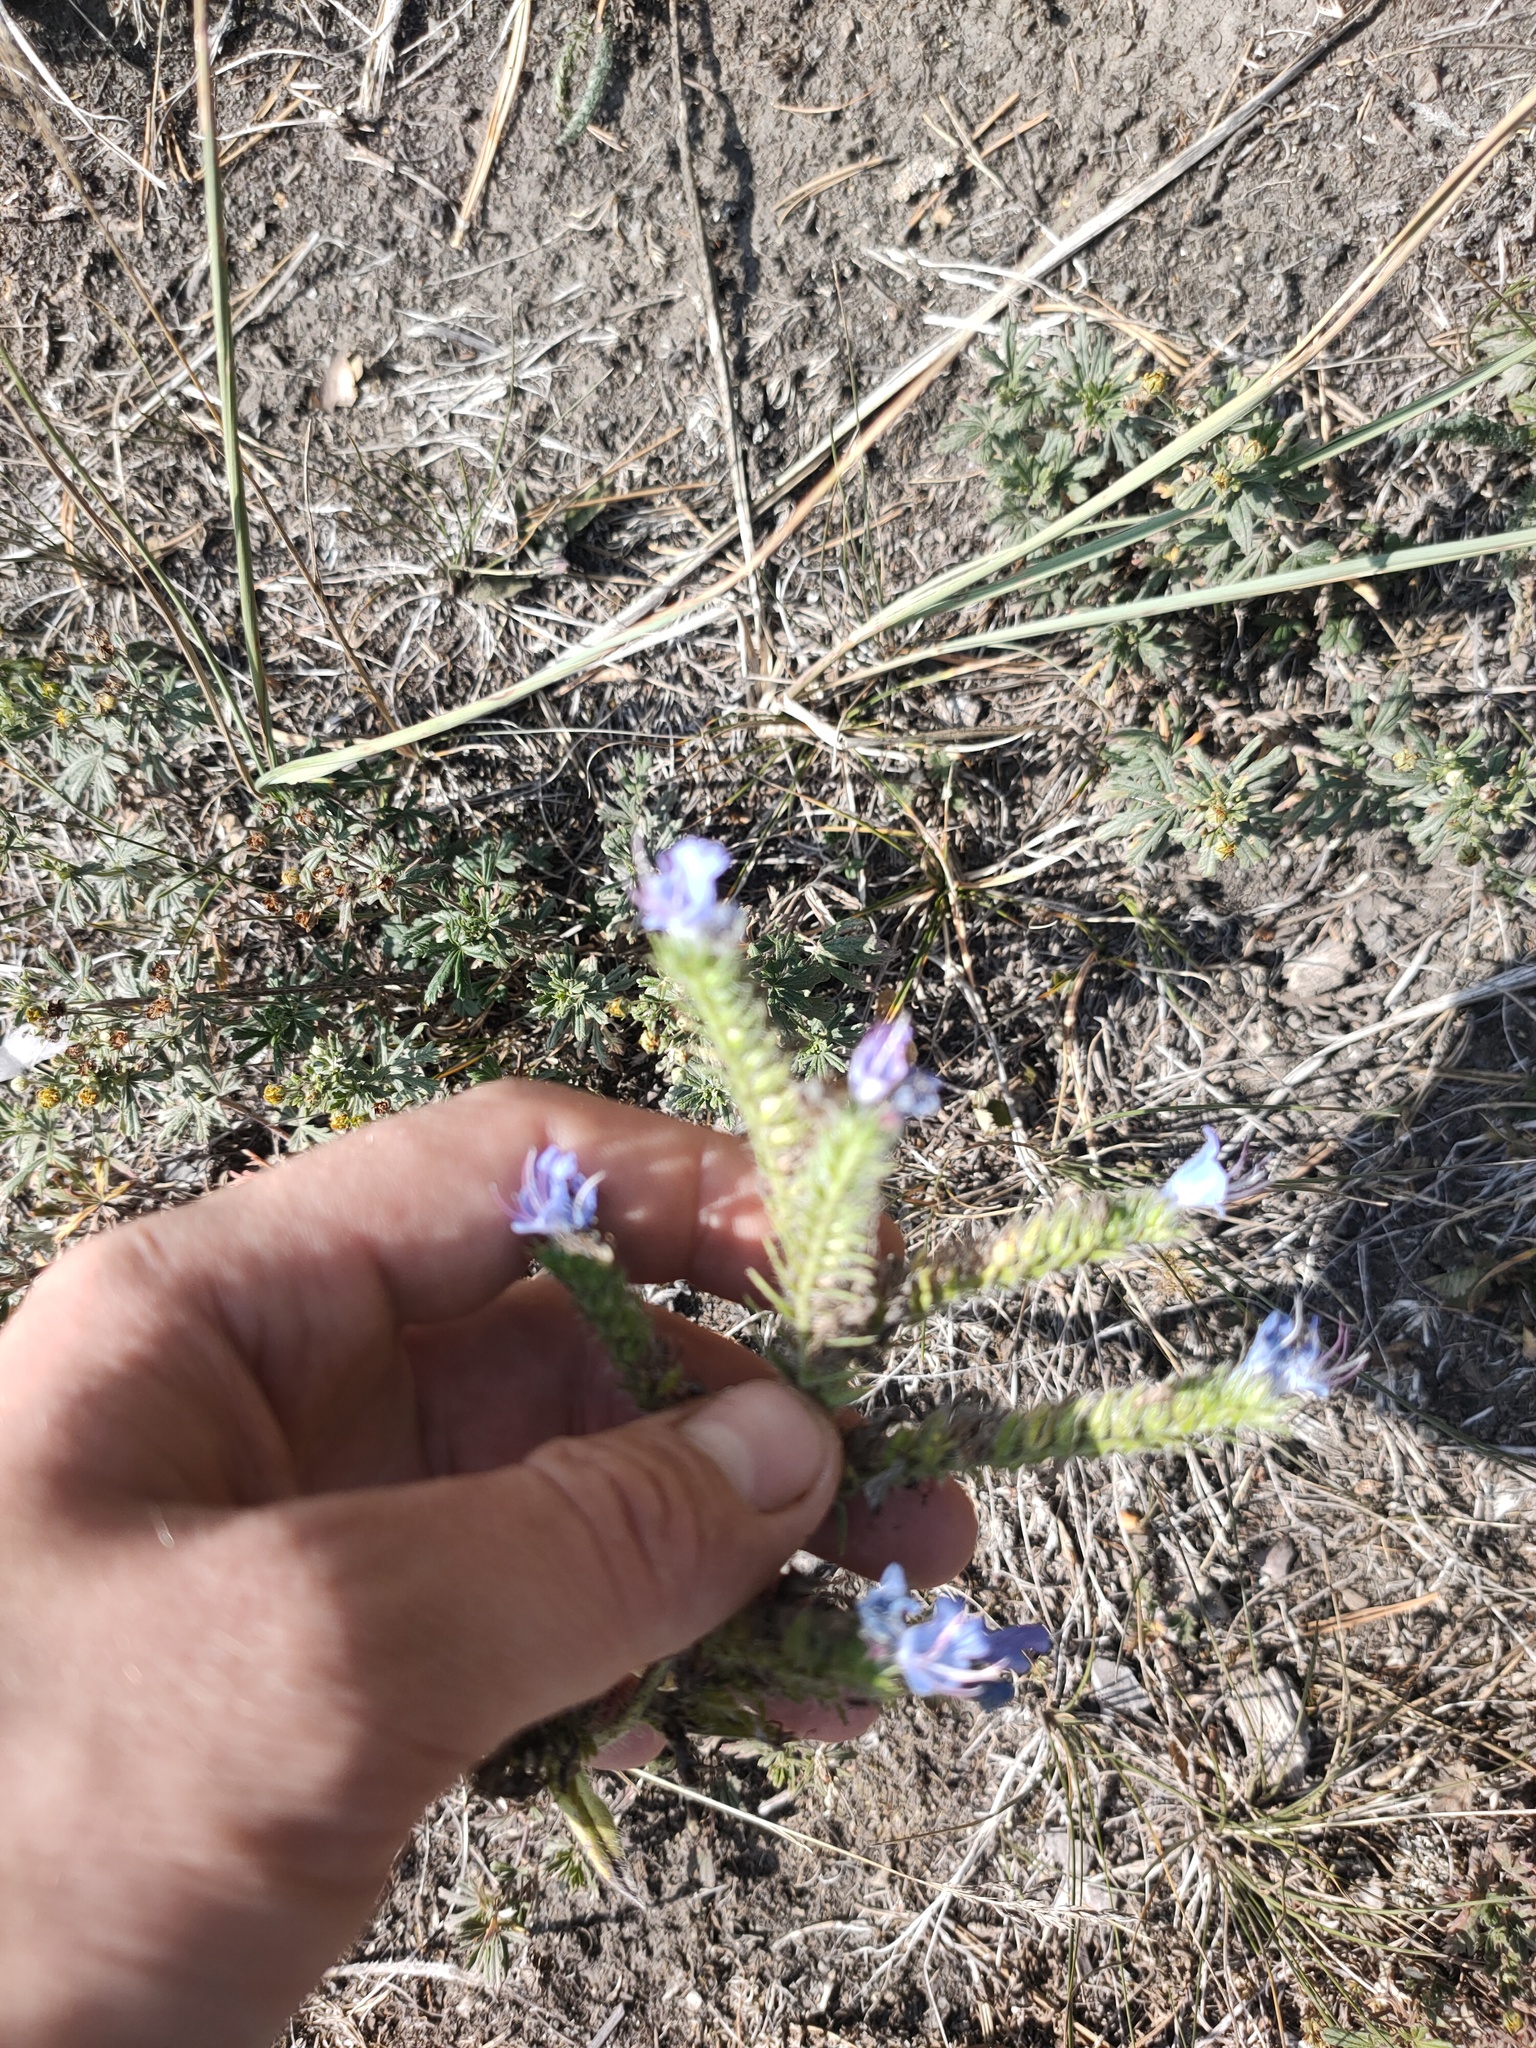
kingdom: Plantae
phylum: Tracheophyta
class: Magnoliopsida
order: Boraginales
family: Boraginaceae
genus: Echium
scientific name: Echium vulgare
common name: Common viper's bugloss
